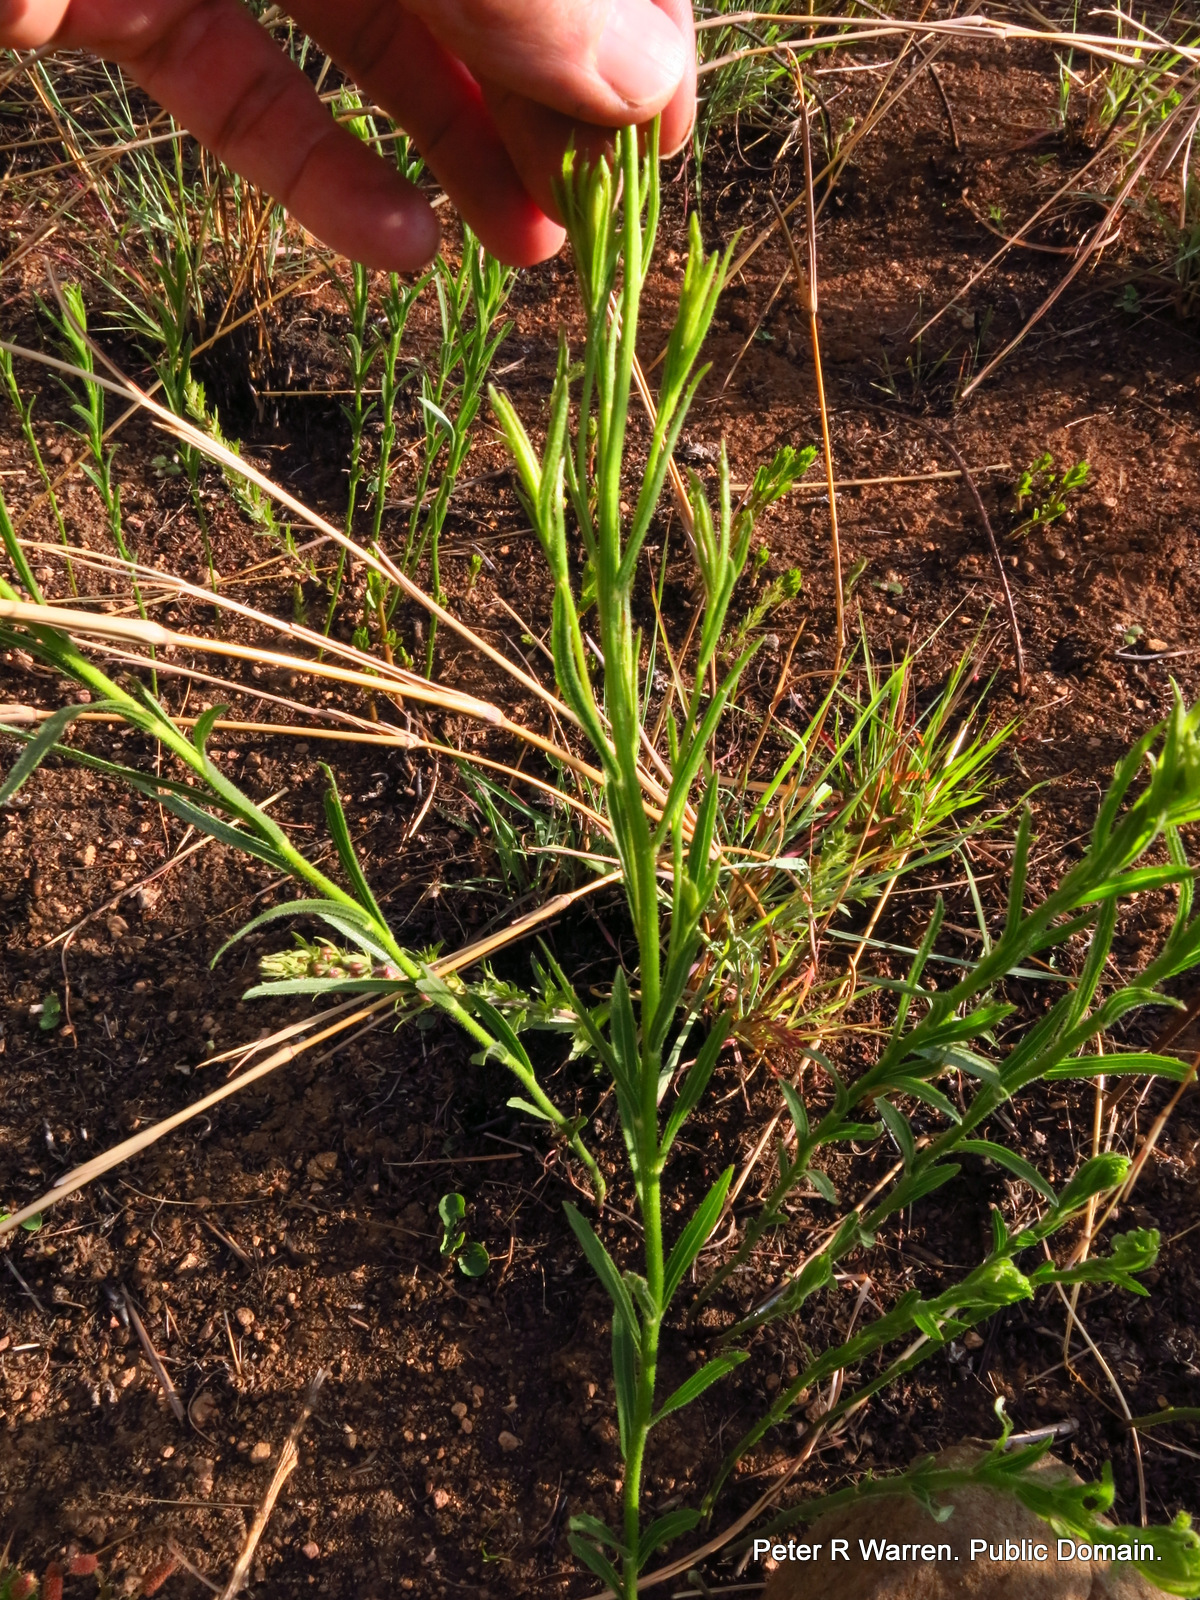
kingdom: Plantae
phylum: Tracheophyta
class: Magnoliopsida
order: Asterales
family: Asteraceae
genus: Afroaster
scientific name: Afroaster pleiocephalus
